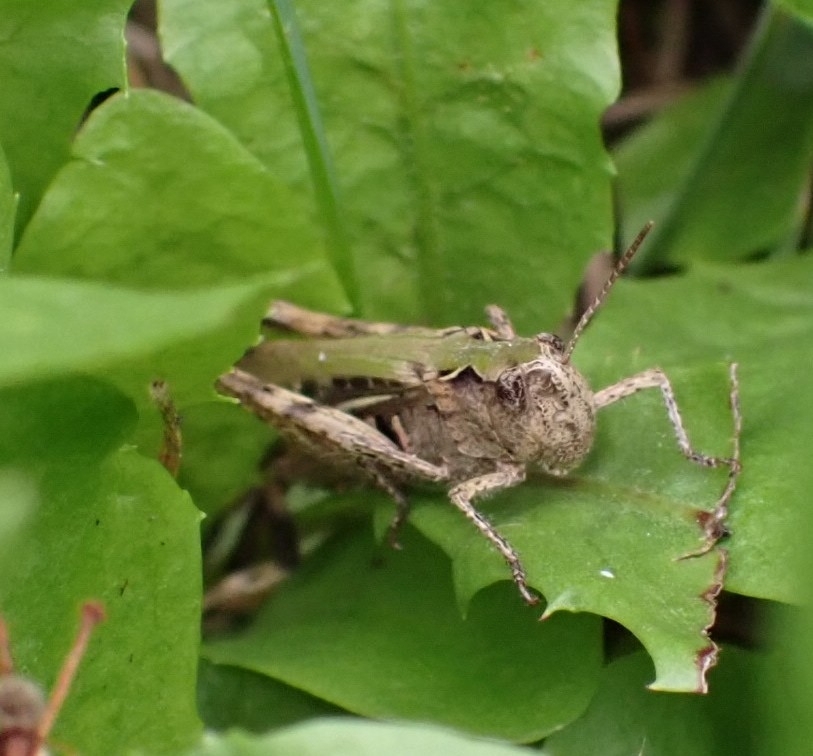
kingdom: Animalia
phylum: Arthropoda
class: Insecta
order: Orthoptera
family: Acrididae
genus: Chorthippus
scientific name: Chorthippus biguttulus
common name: Bow-winged grasshopper
